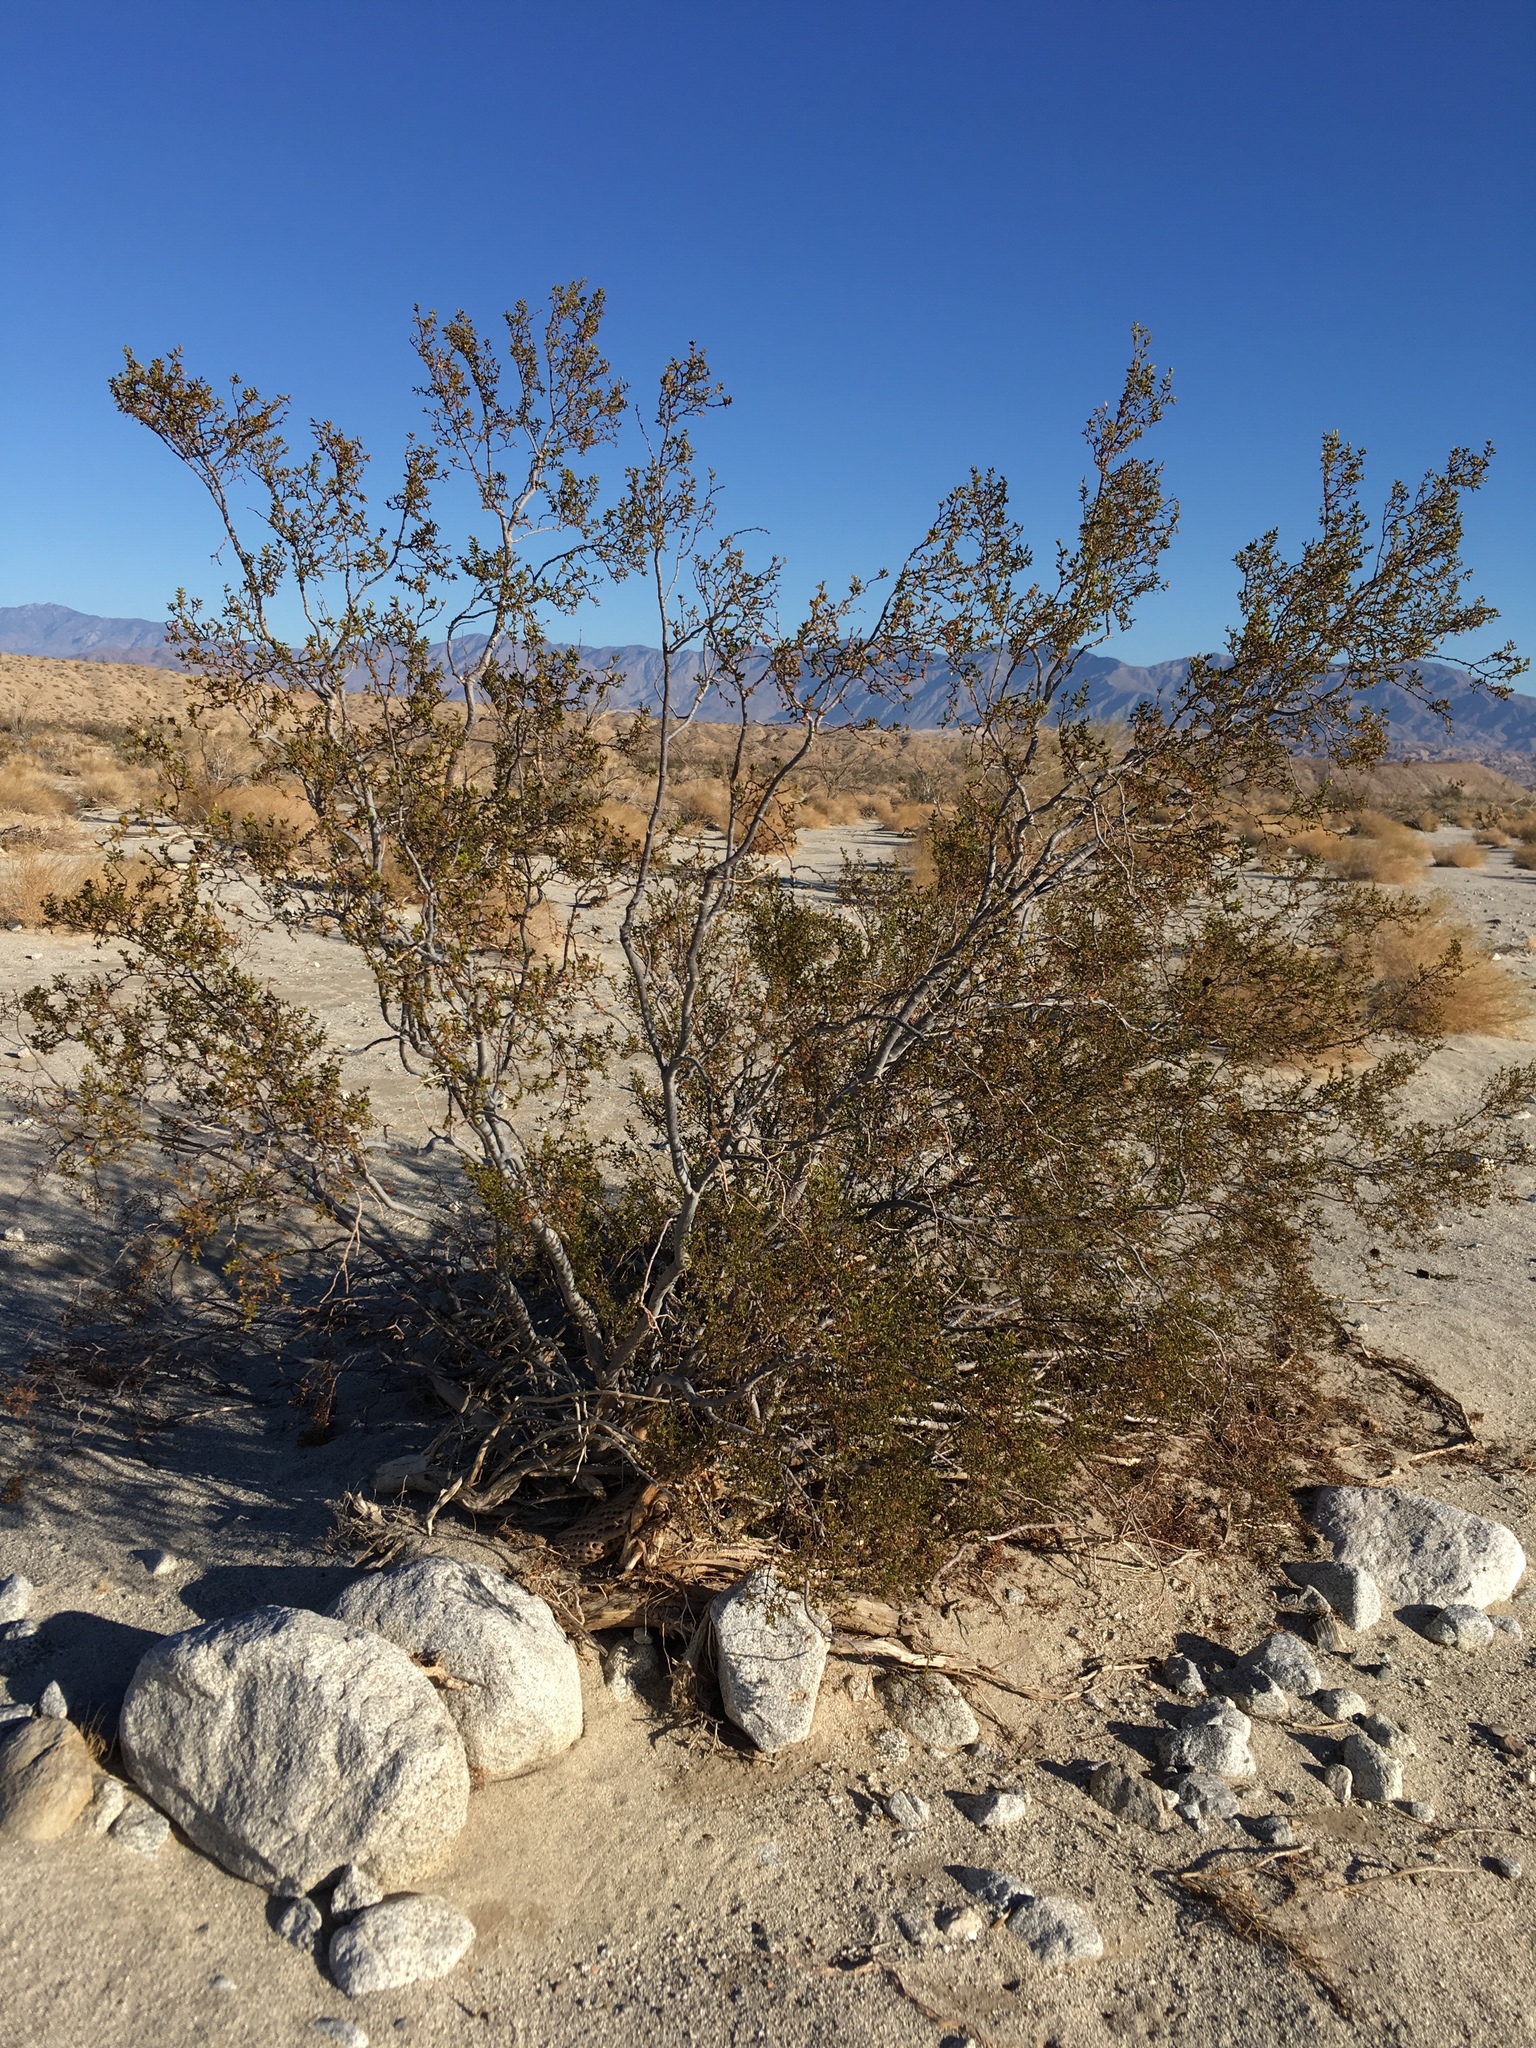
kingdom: Animalia
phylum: Arthropoda
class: Insecta
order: Diptera
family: Cecidomyiidae
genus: Asphondylia
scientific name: Asphondylia auripila
